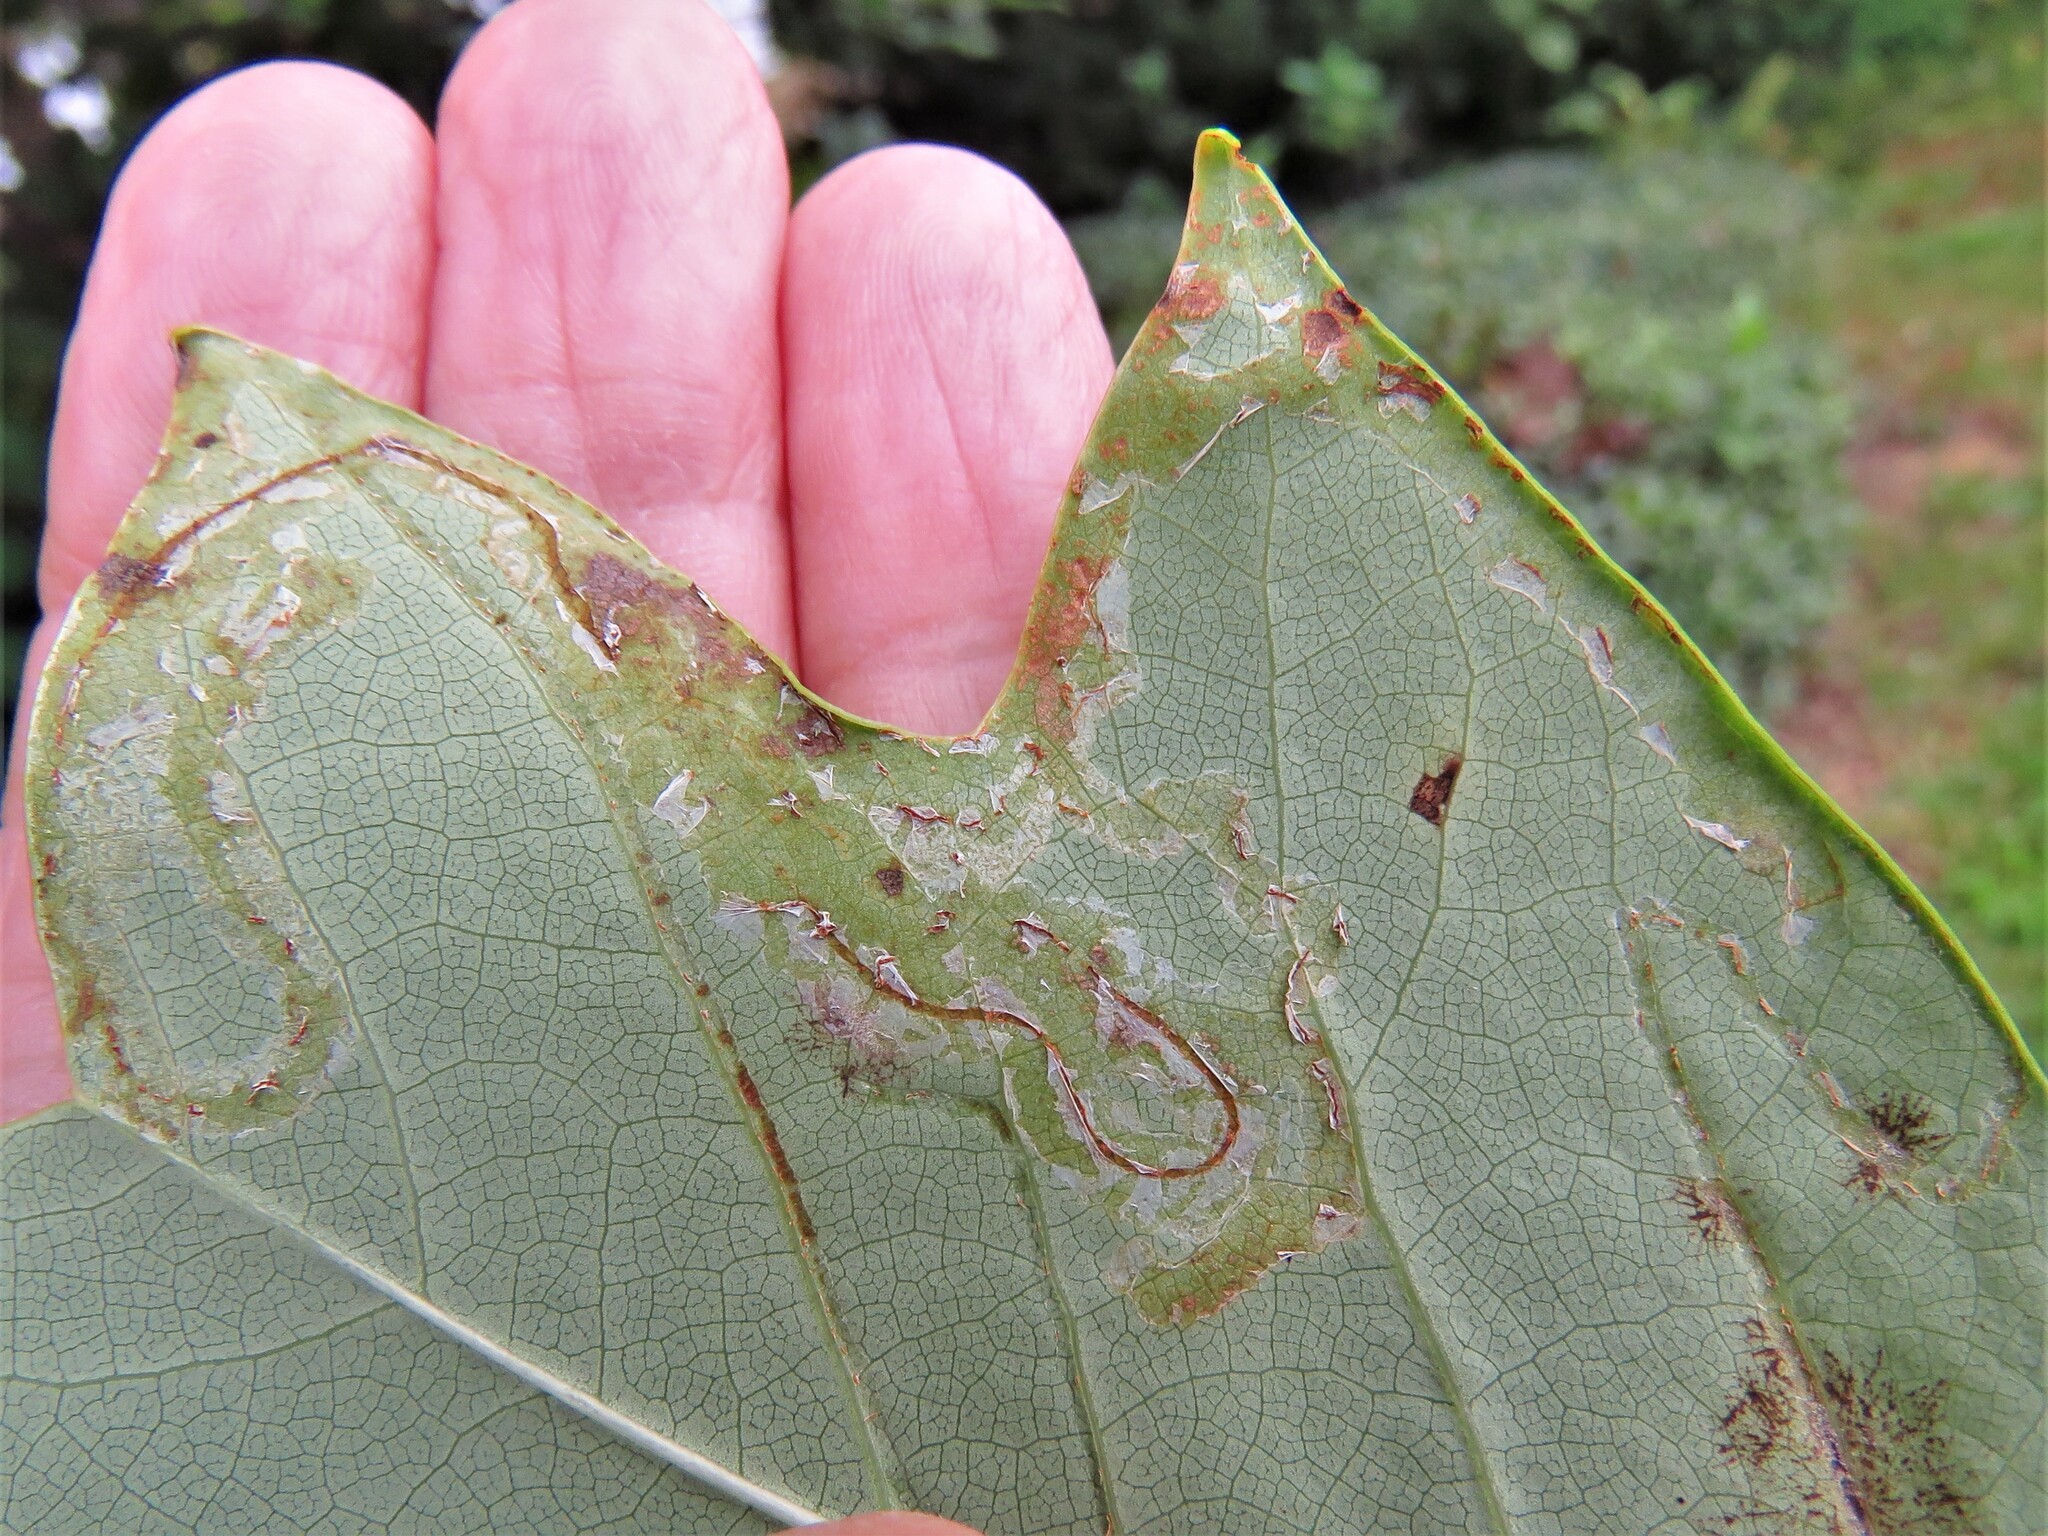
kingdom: Animalia
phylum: Arthropoda
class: Insecta
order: Lepidoptera
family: Gracillariidae
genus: Phyllocnistis
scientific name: Phyllocnistis liriodendronella
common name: Tulip tree leaf miner
